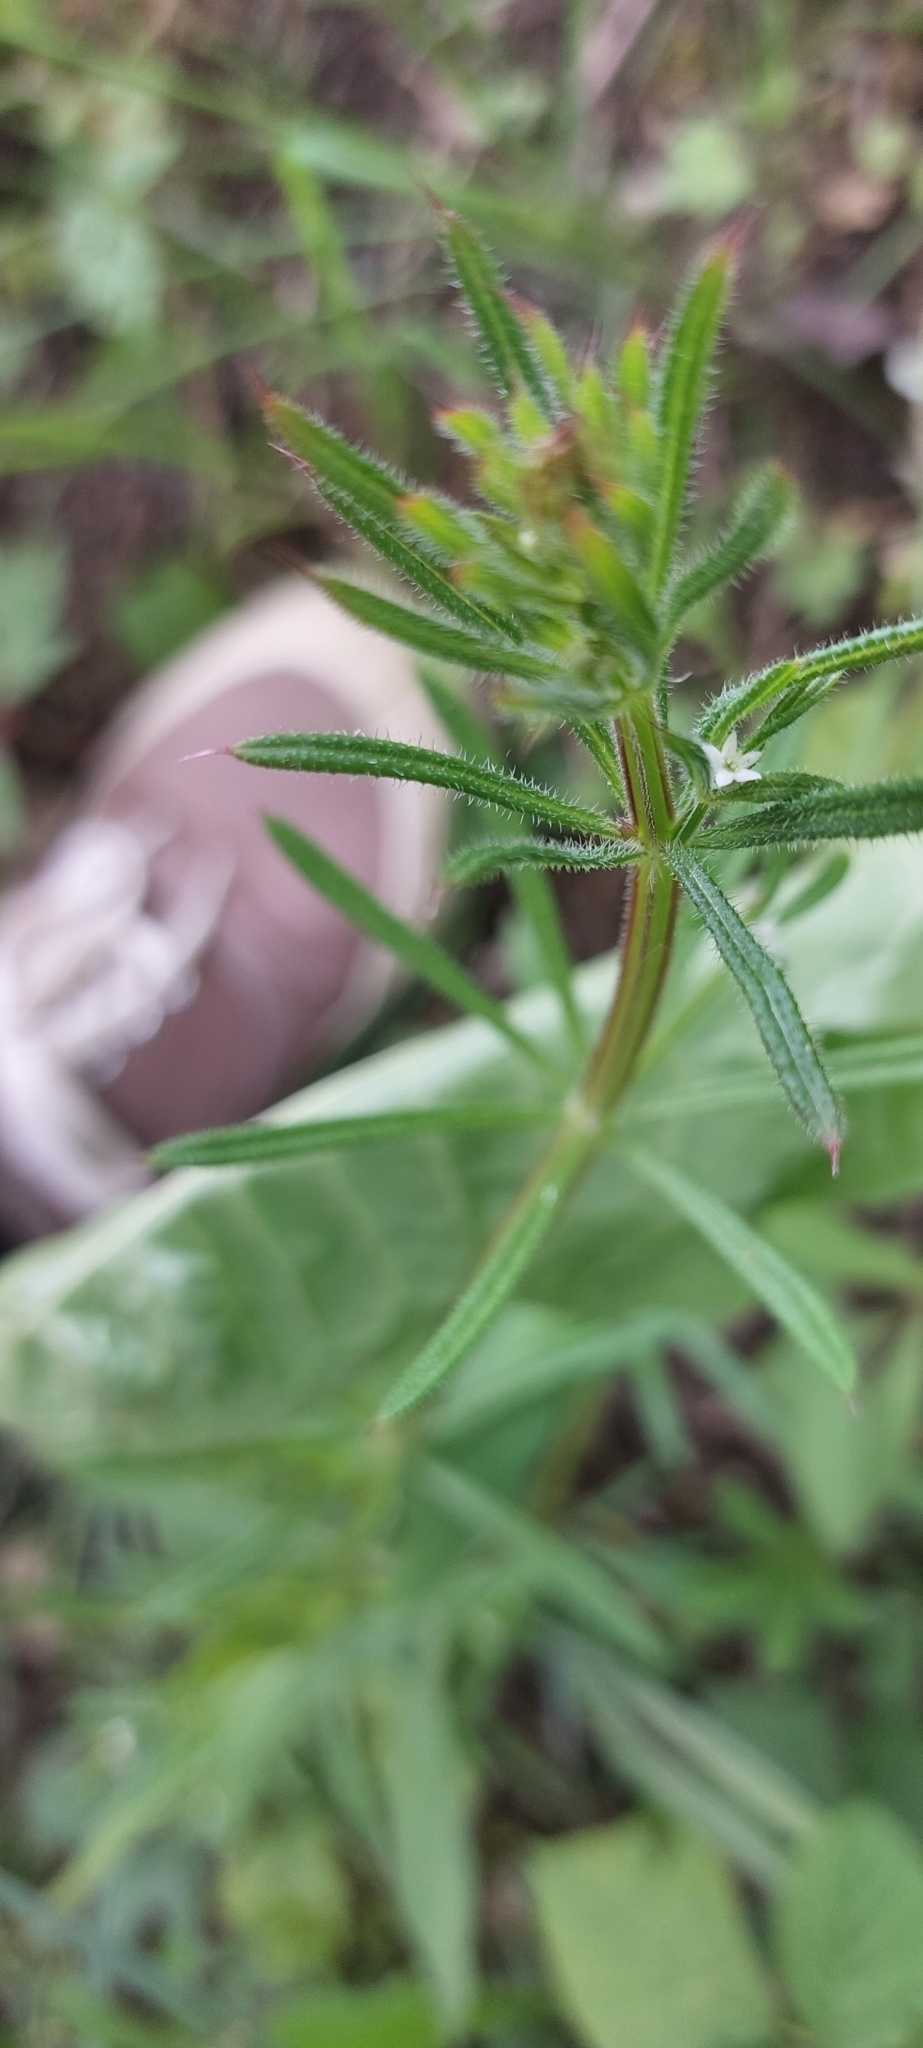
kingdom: Plantae
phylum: Tracheophyta
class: Magnoliopsida
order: Gentianales
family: Rubiaceae
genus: Galium
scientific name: Galium aparine
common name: Cleavers
